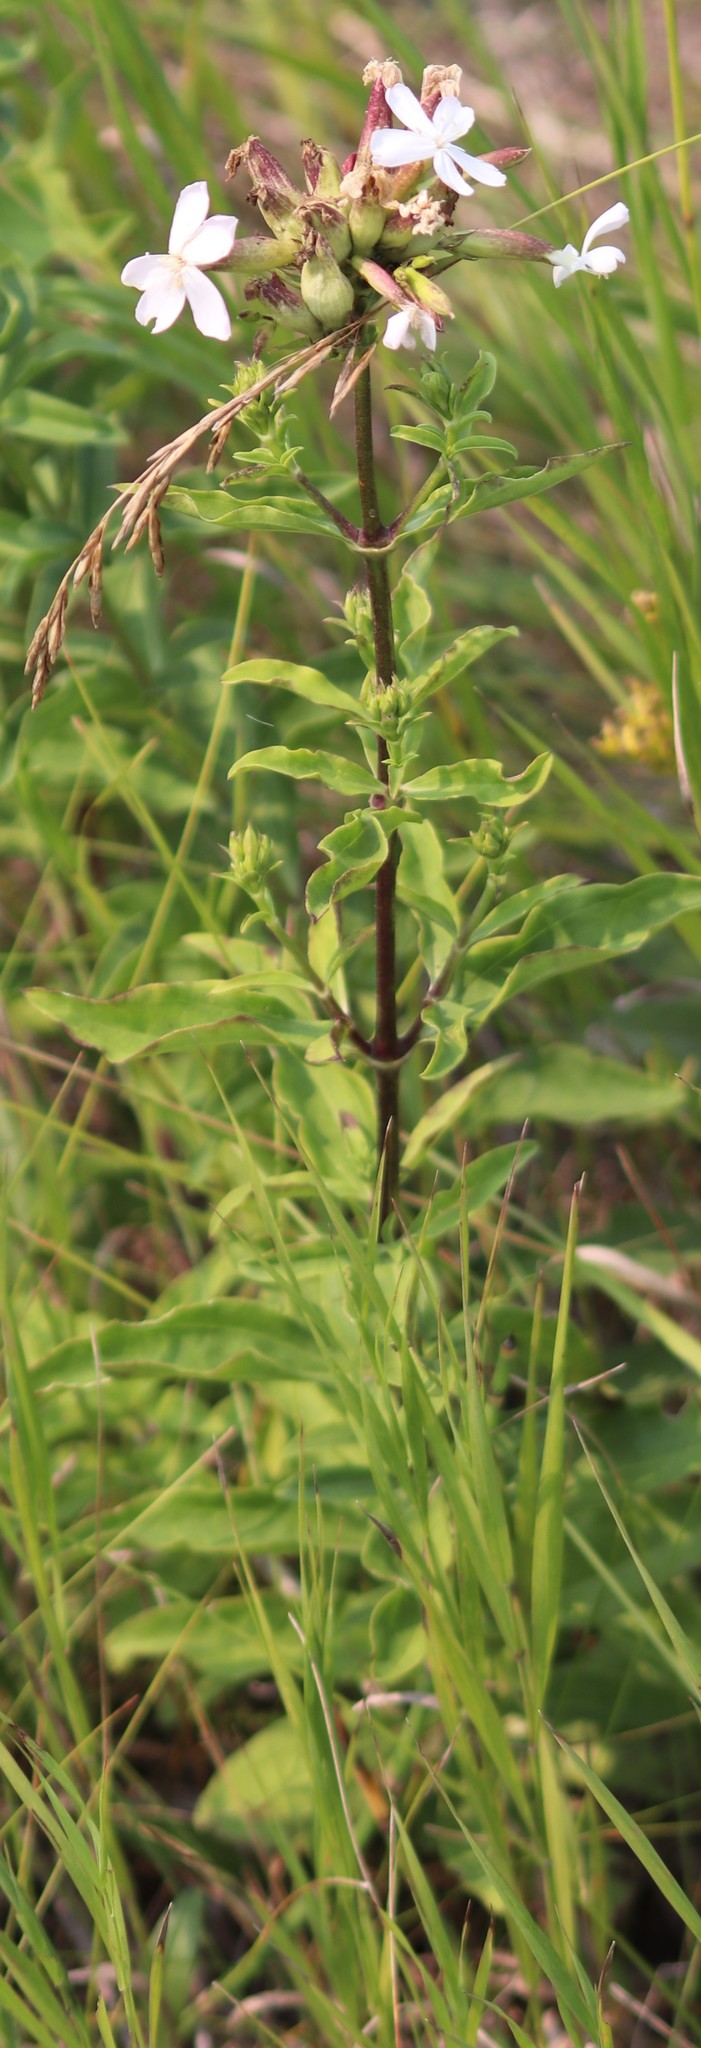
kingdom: Plantae
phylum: Tracheophyta
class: Magnoliopsida
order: Caryophyllales
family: Caryophyllaceae
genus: Saponaria
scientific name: Saponaria officinalis
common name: Soapwort
